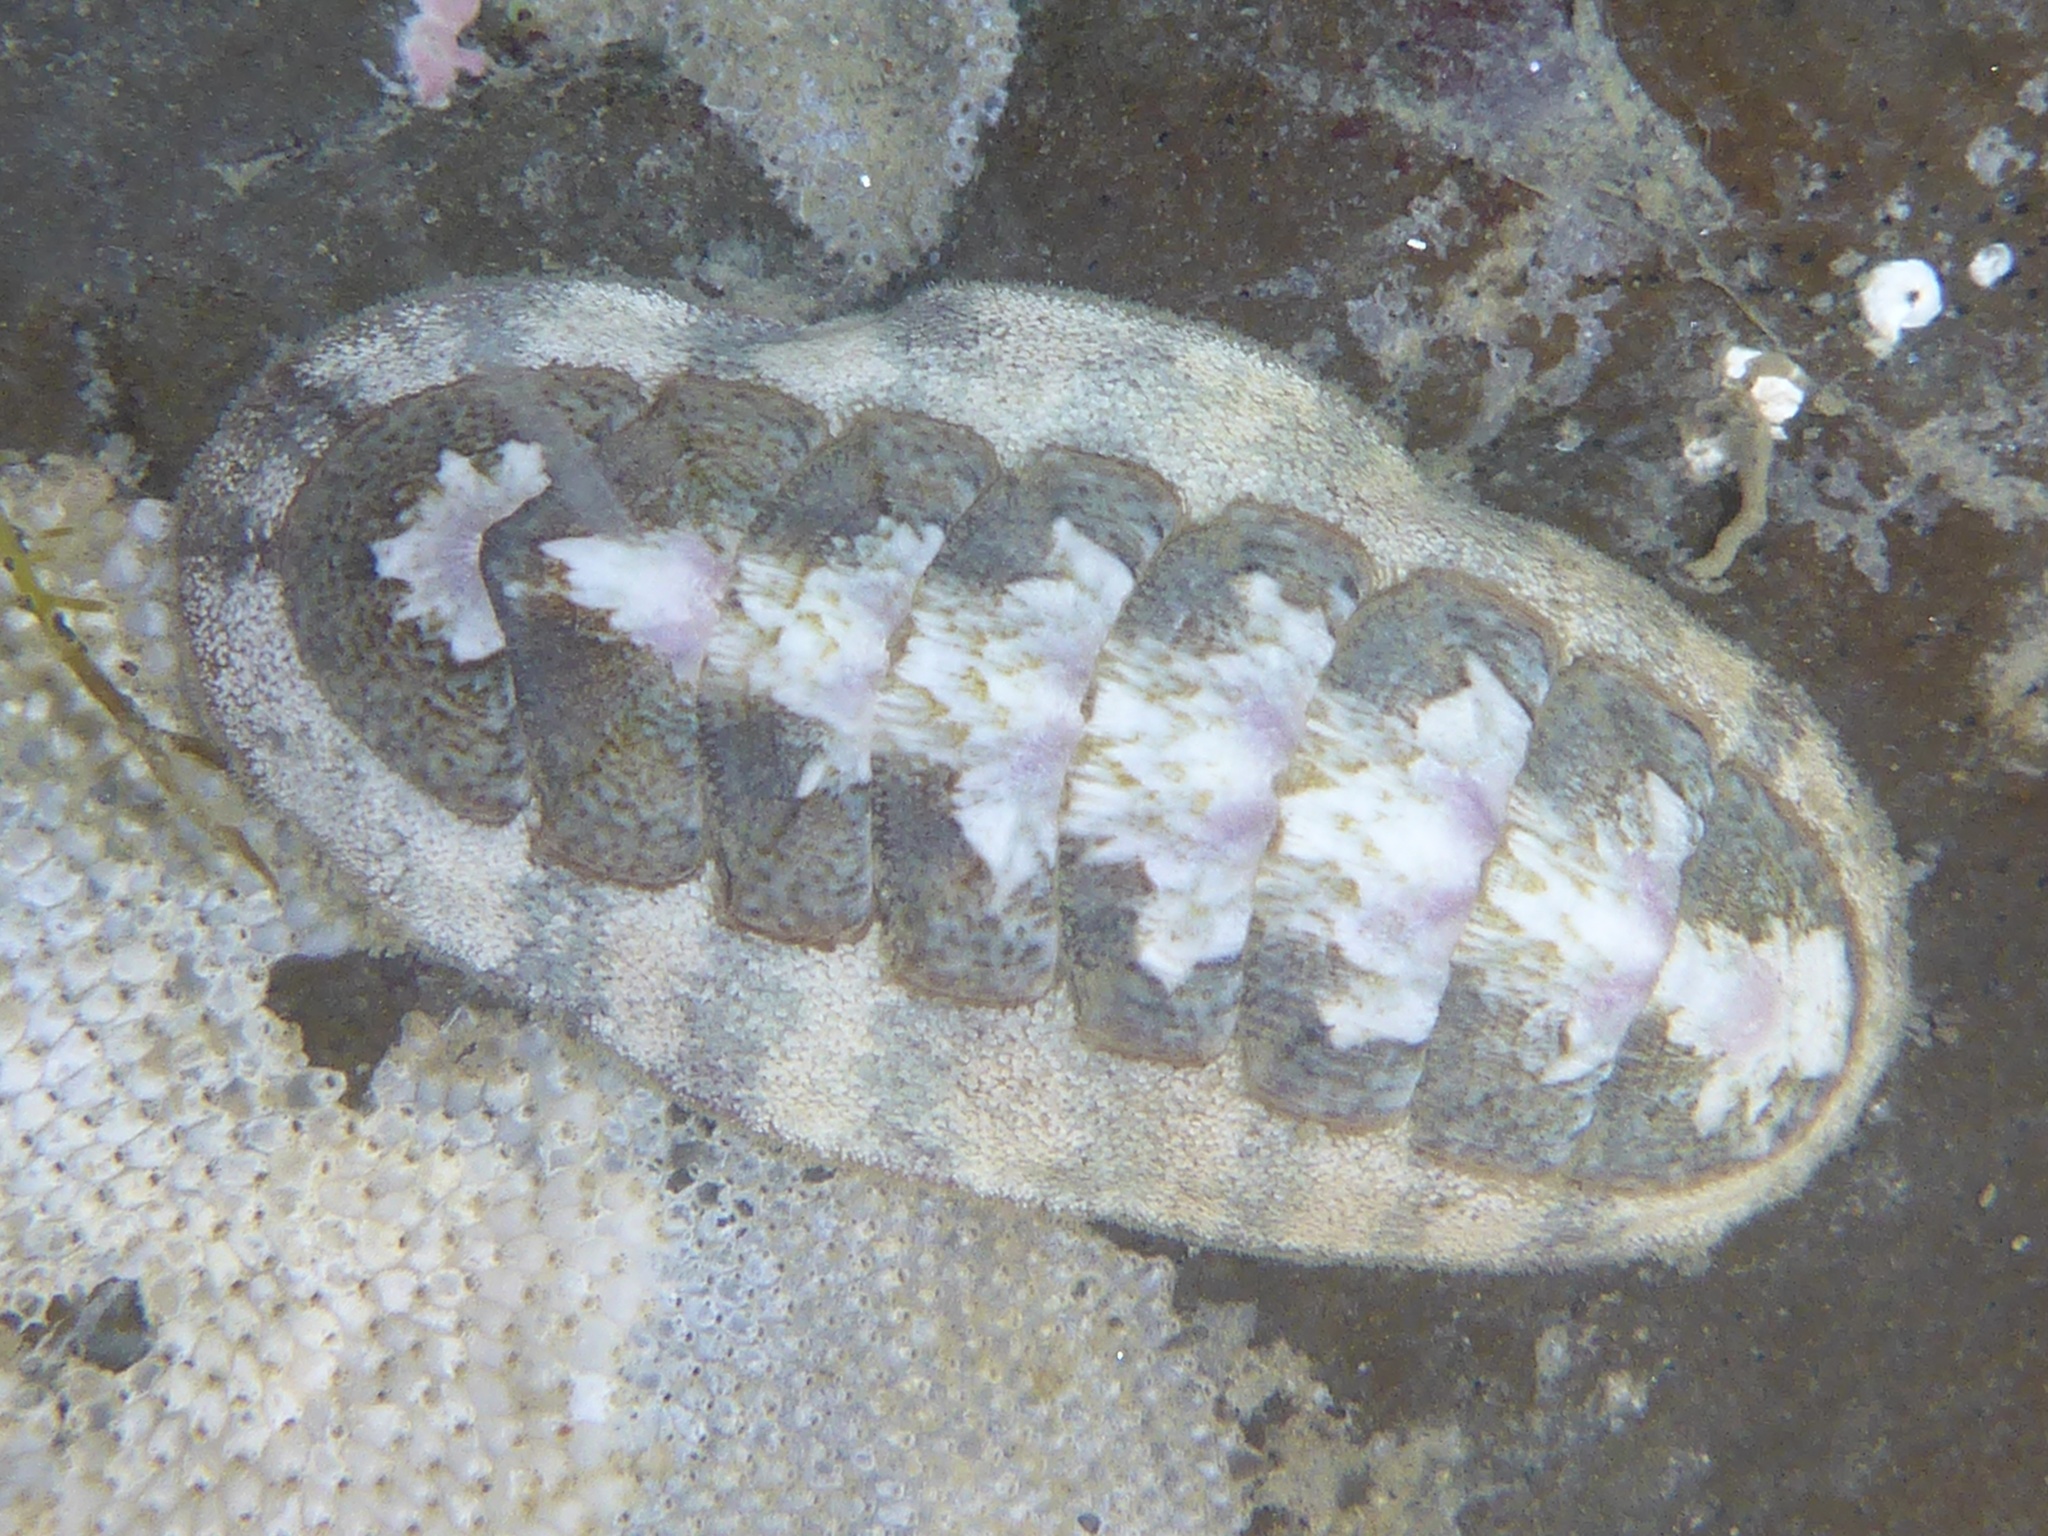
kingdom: Animalia
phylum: Mollusca
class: Polyplacophora
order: Chitonida
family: Ischnochitonidae
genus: Stenoplax
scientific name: Stenoplax heathiana
